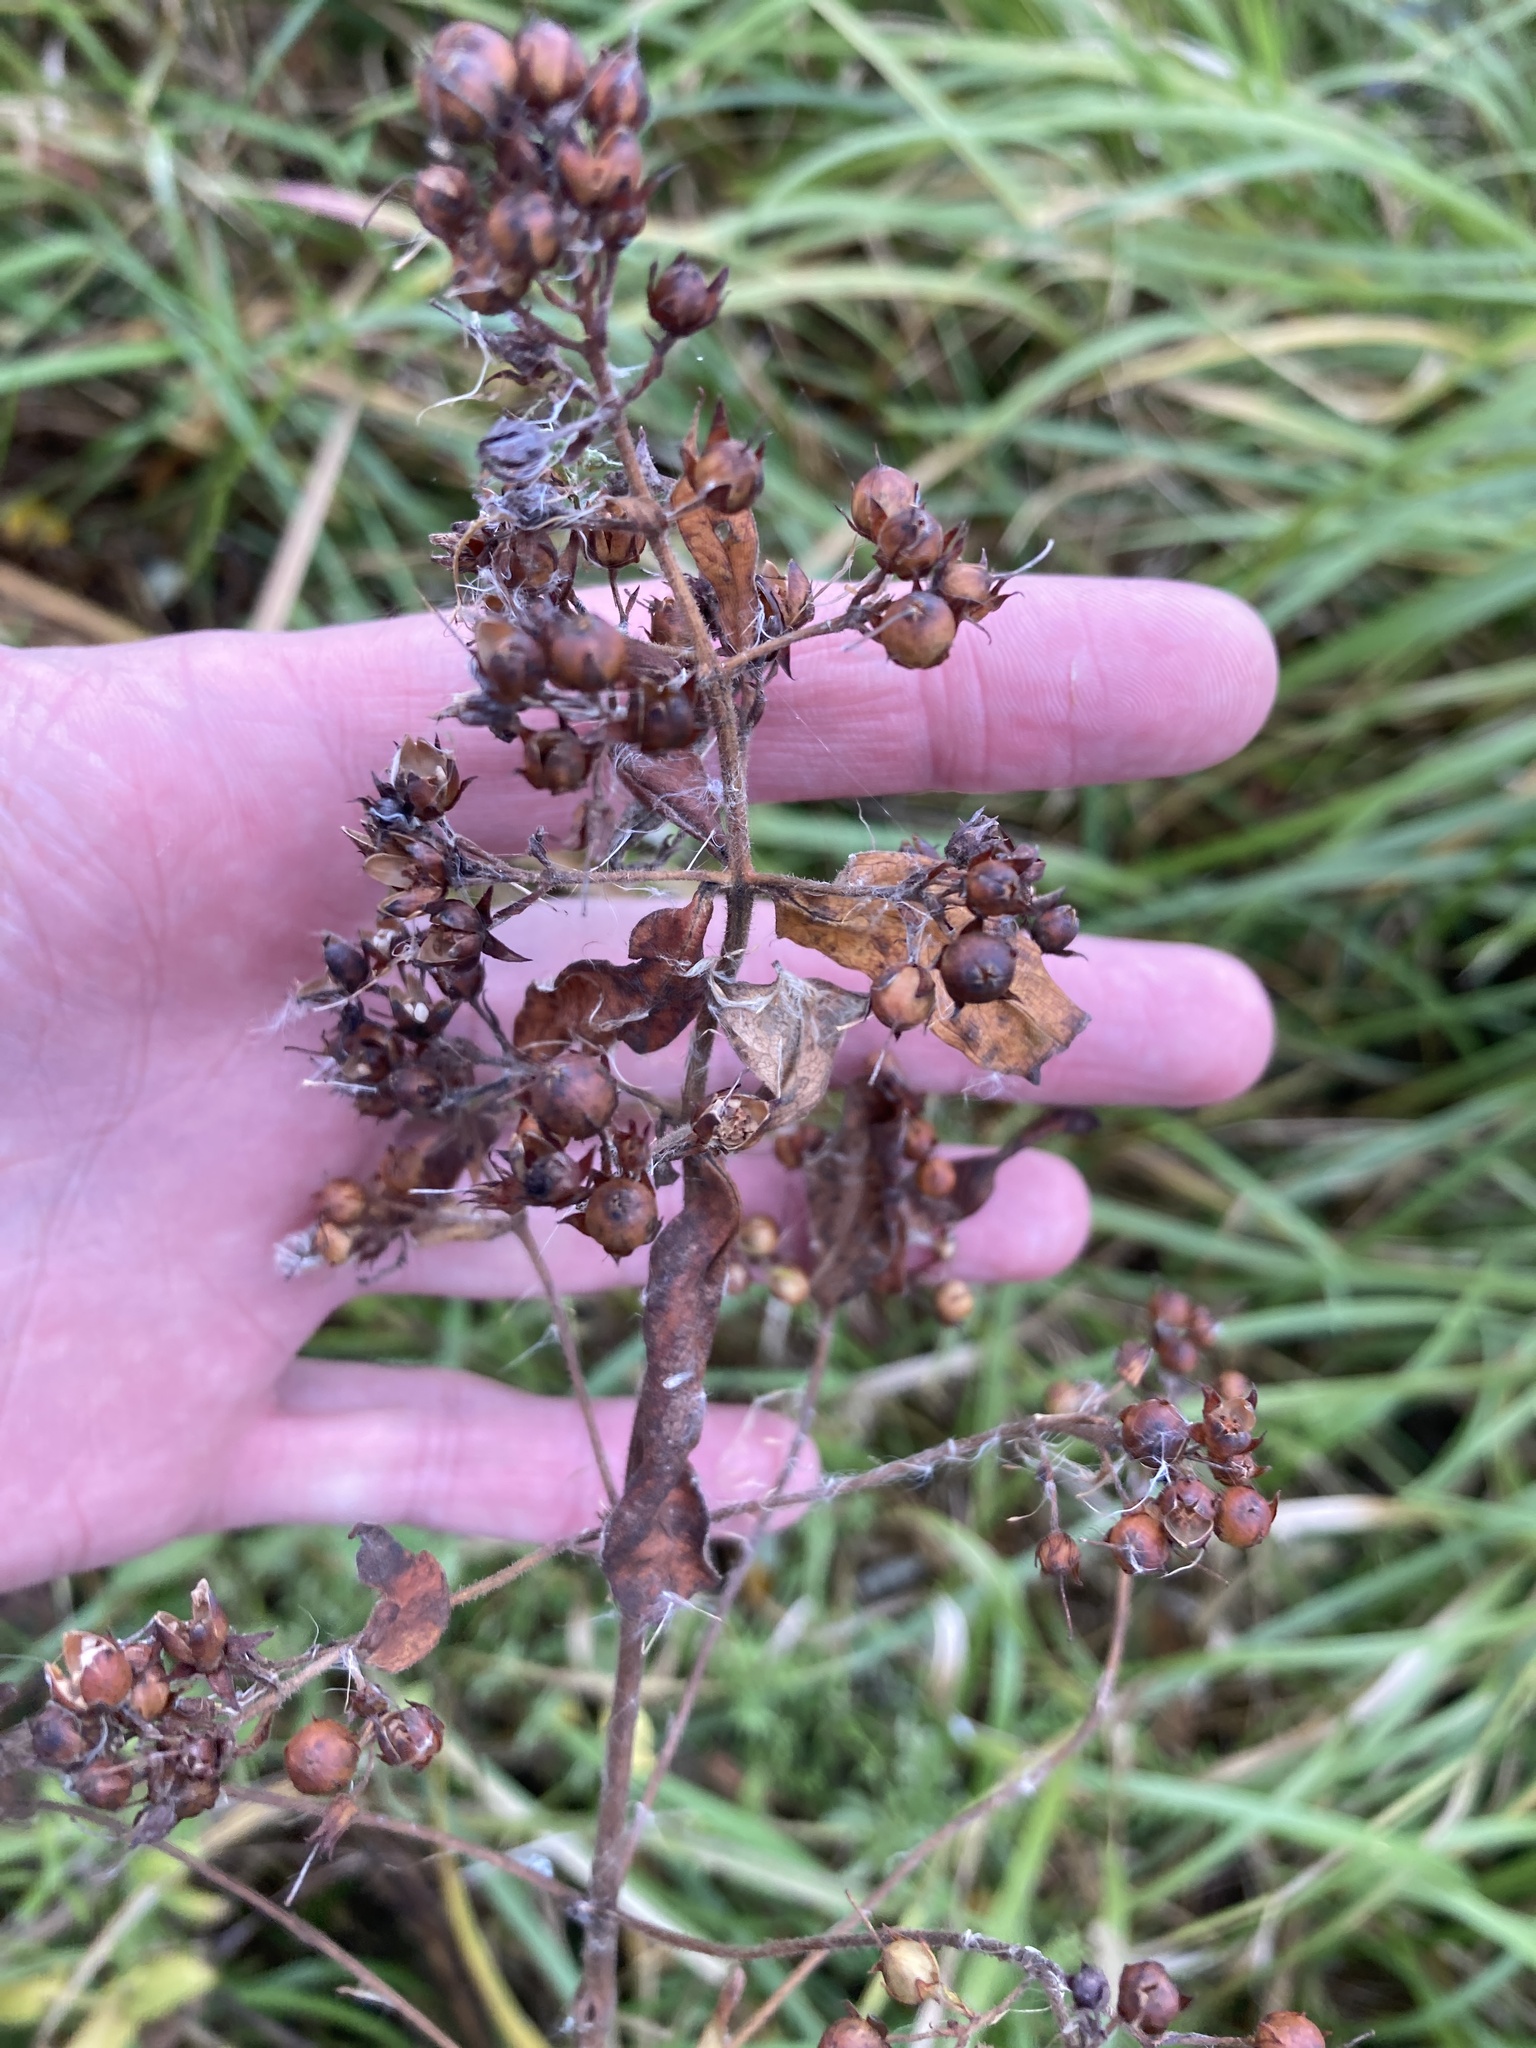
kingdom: Plantae
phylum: Tracheophyta
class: Magnoliopsida
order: Ericales
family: Primulaceae
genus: Lysimachia
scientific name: Lysimachia vulgaris
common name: Yellow loosestrife
